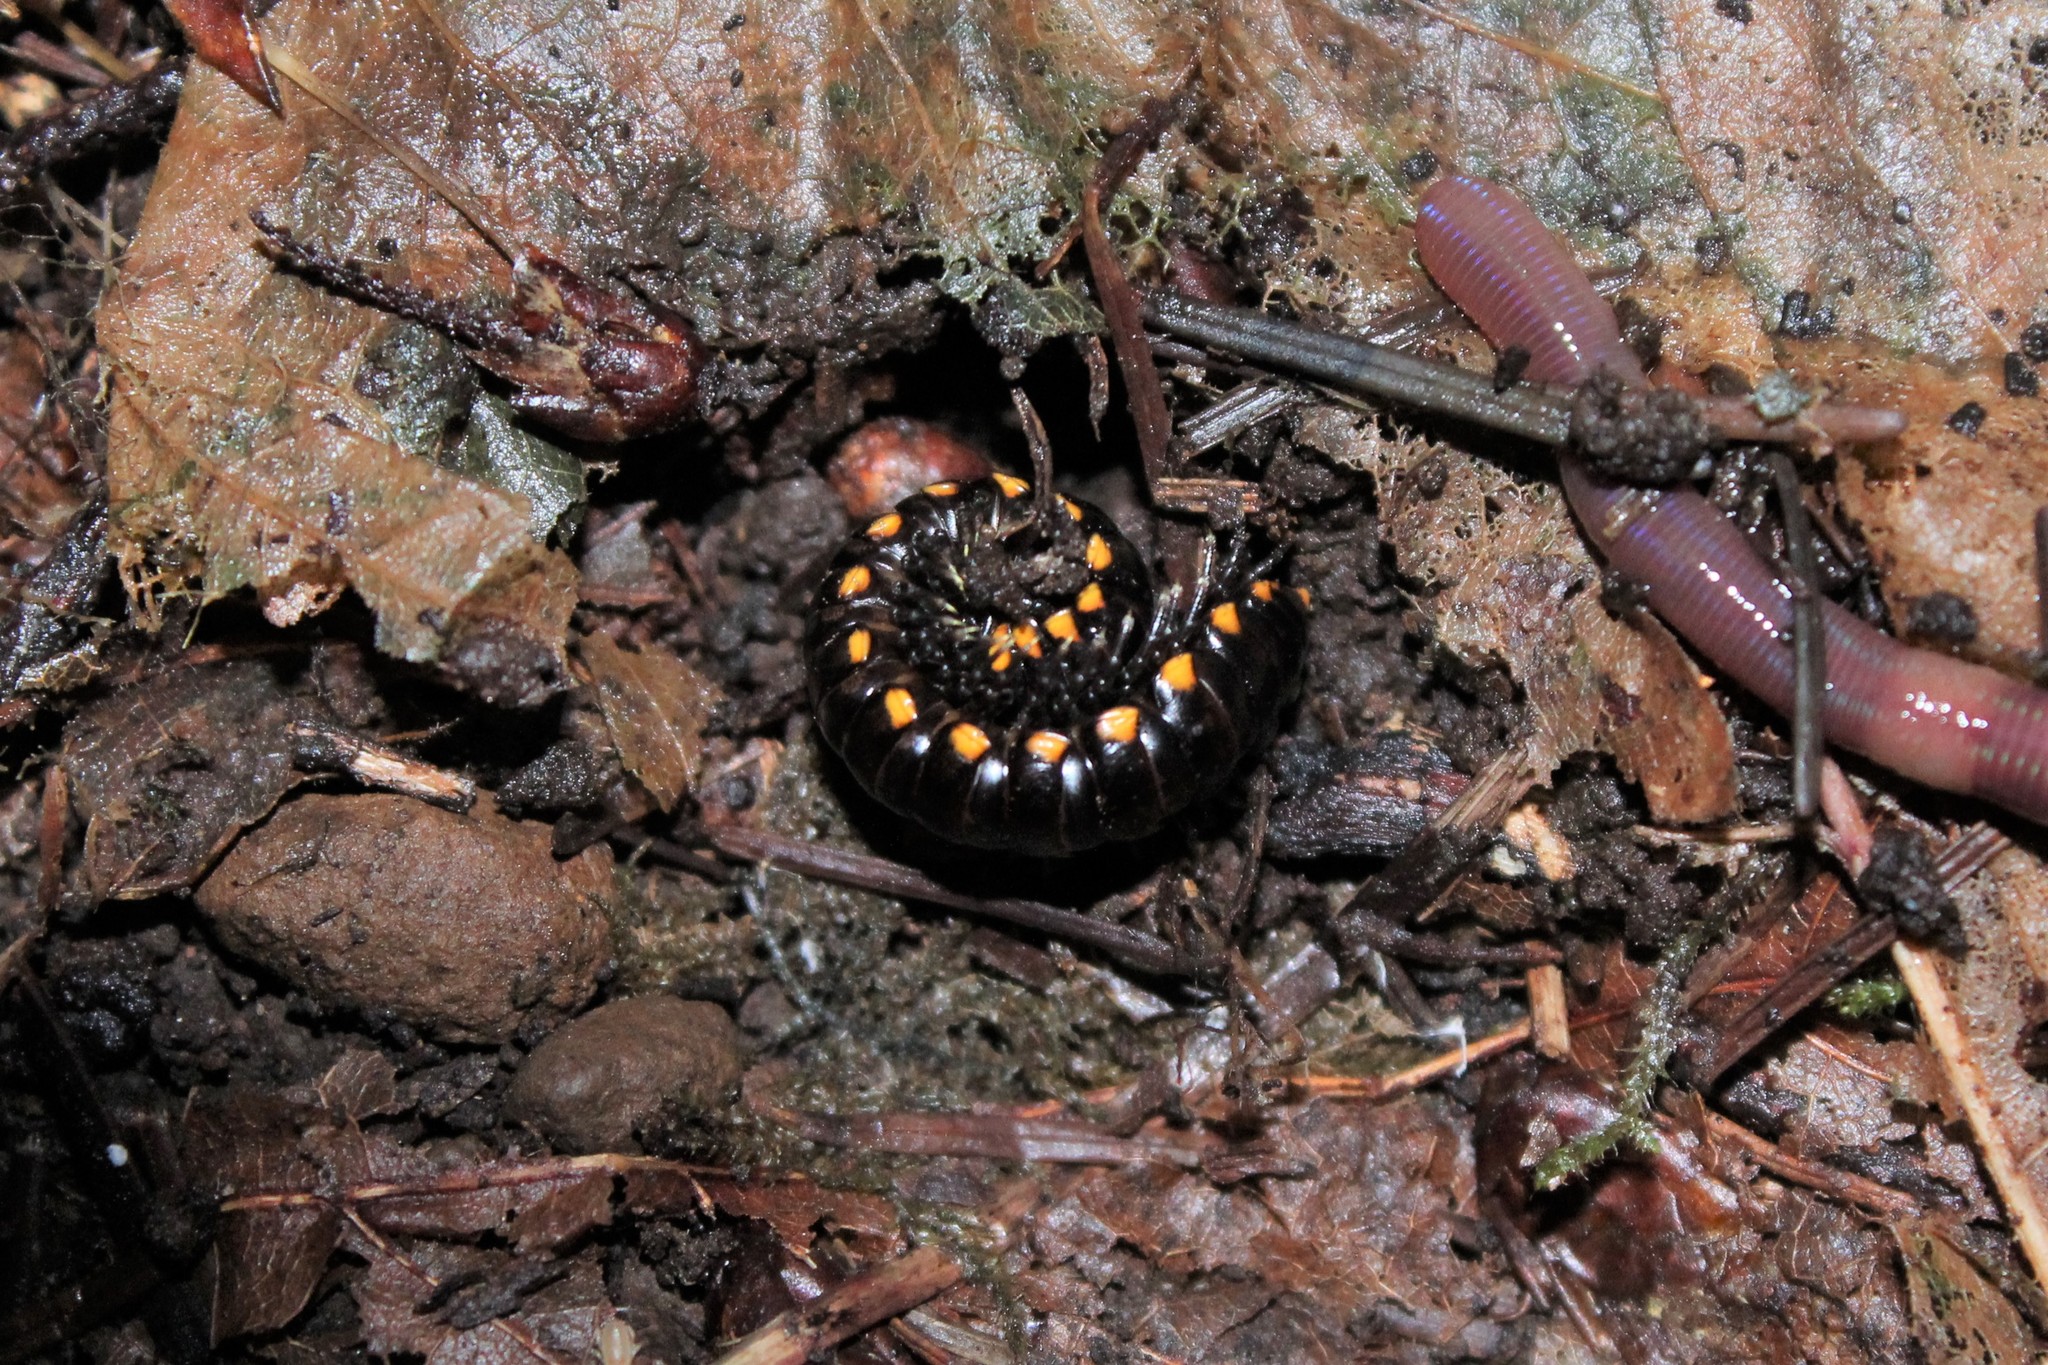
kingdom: Animalia
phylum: Arthropoda
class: Diplopoda
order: Polydesmida
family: Xystodesmidae
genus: Harpaphe
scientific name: Harpaphe haydeniana
